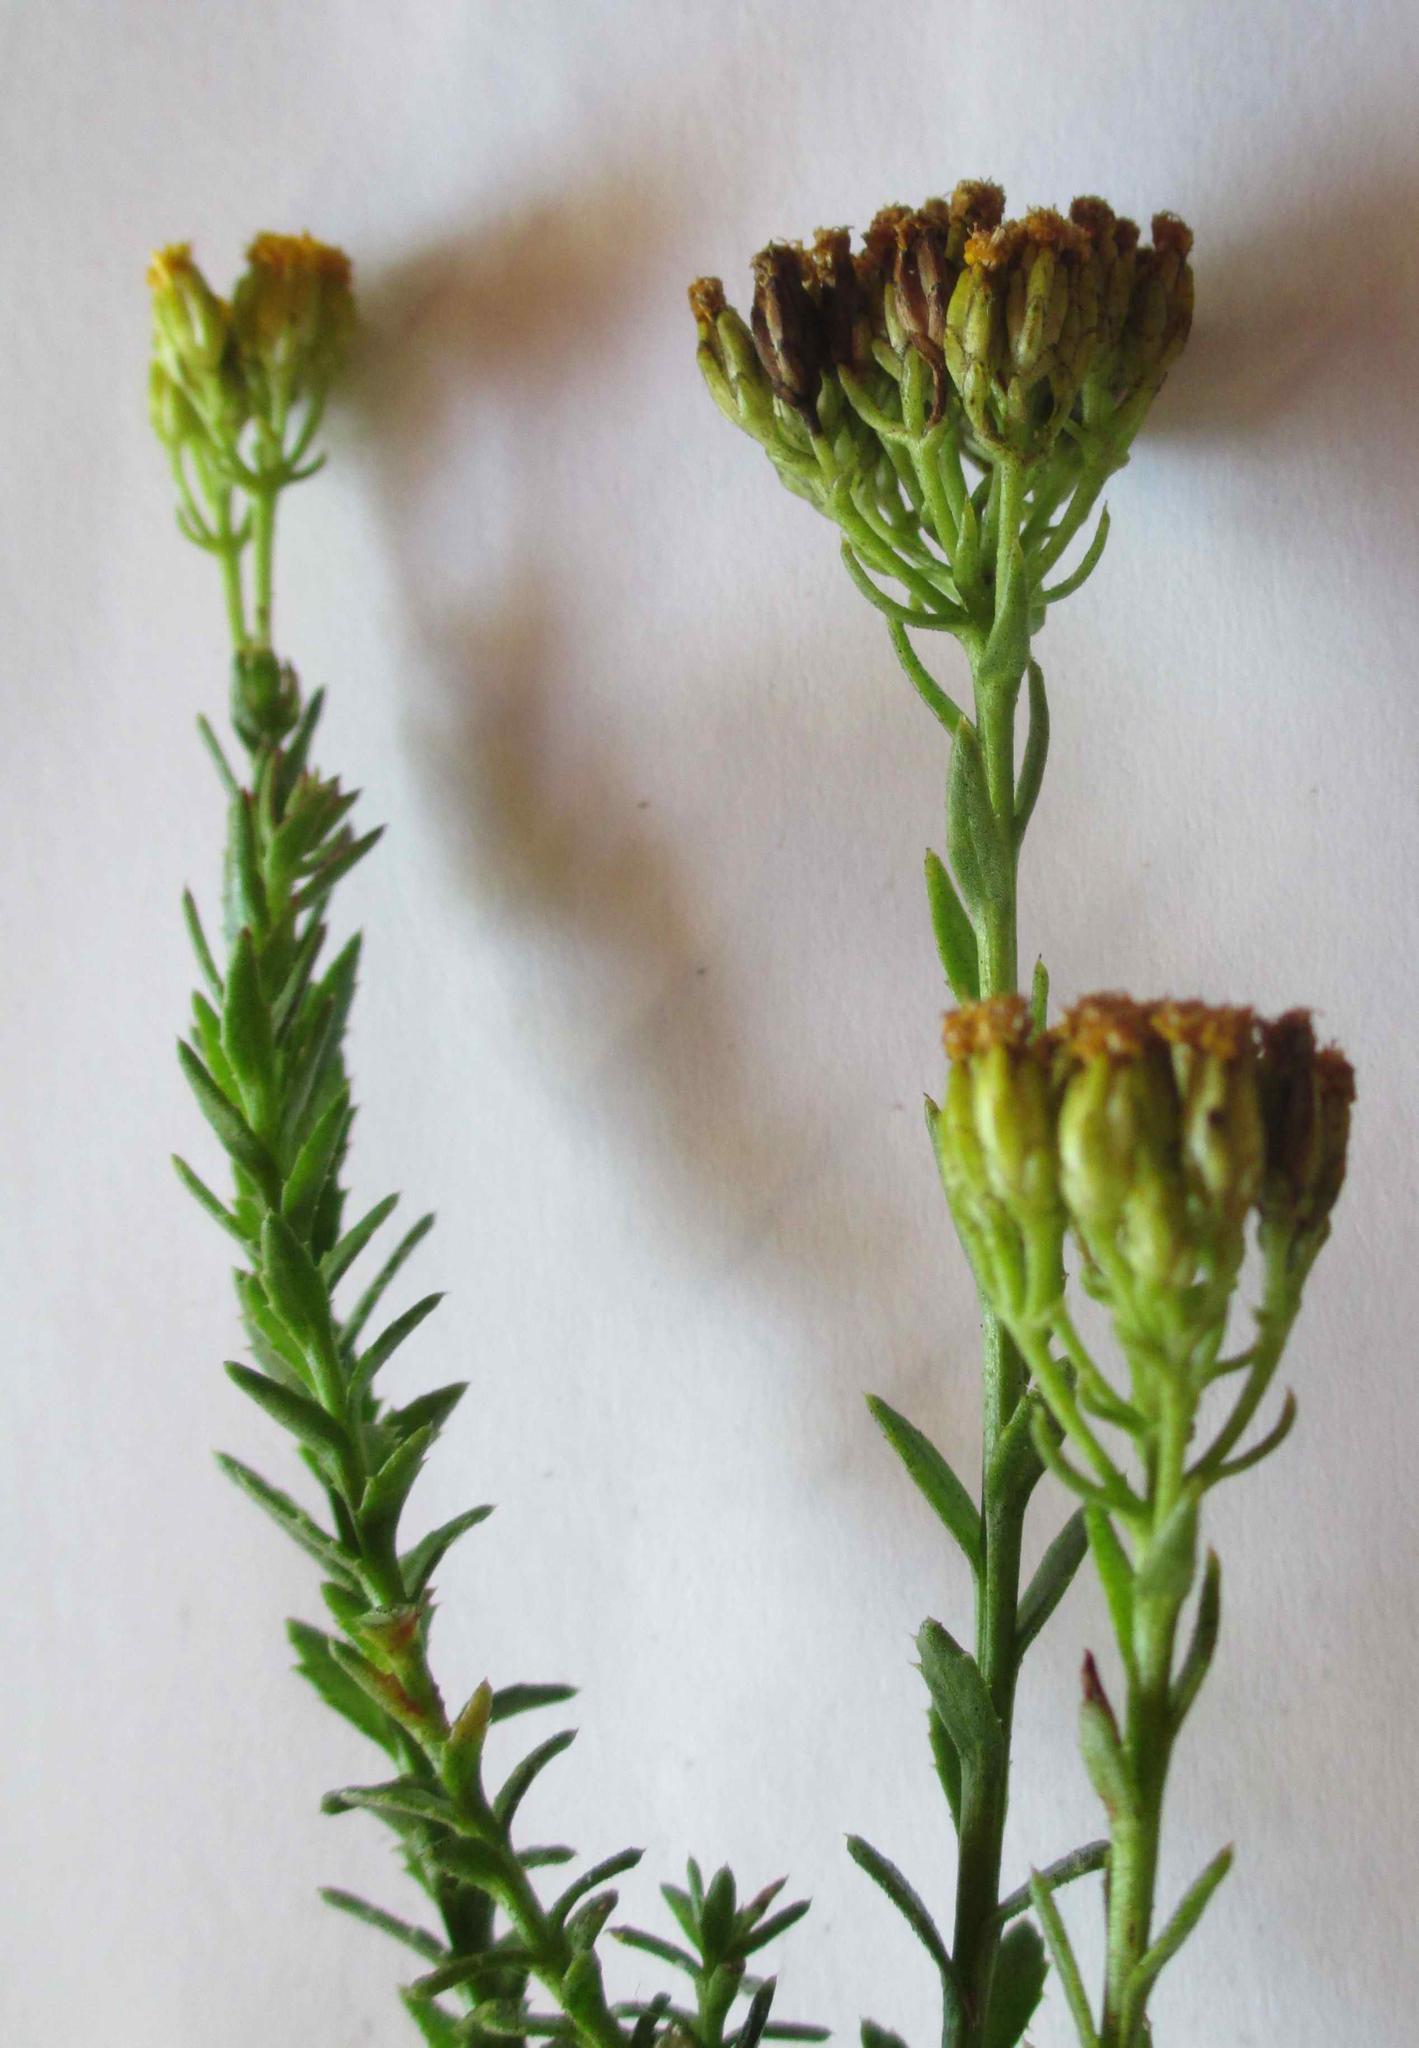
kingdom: Plantae
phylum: Tracheophyta
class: Magnoliopsida
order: Asterales
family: Asteraceae
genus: Athanasia
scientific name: Athanasia filiformis
